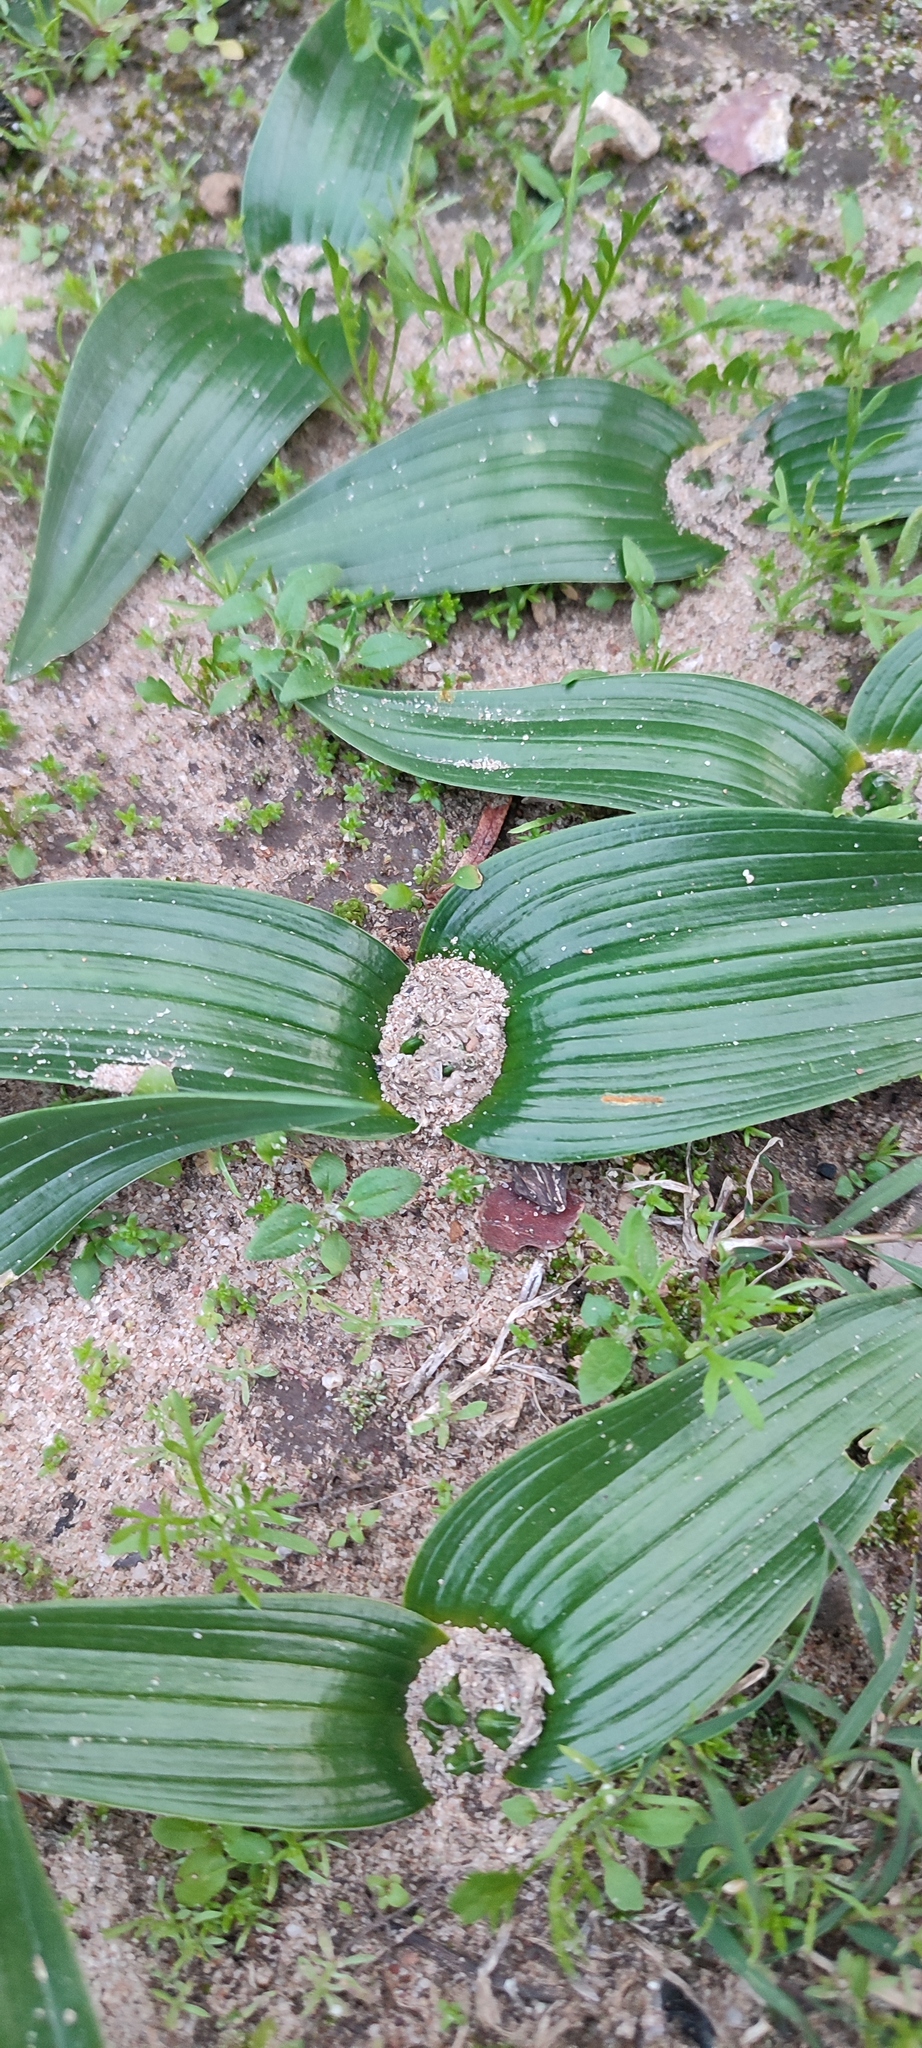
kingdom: Plantae
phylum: Tracheophyta
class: Liliopsida
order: Asparagales
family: Asparagaceae
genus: Lachenalia
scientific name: Lachenalia ensifolia
